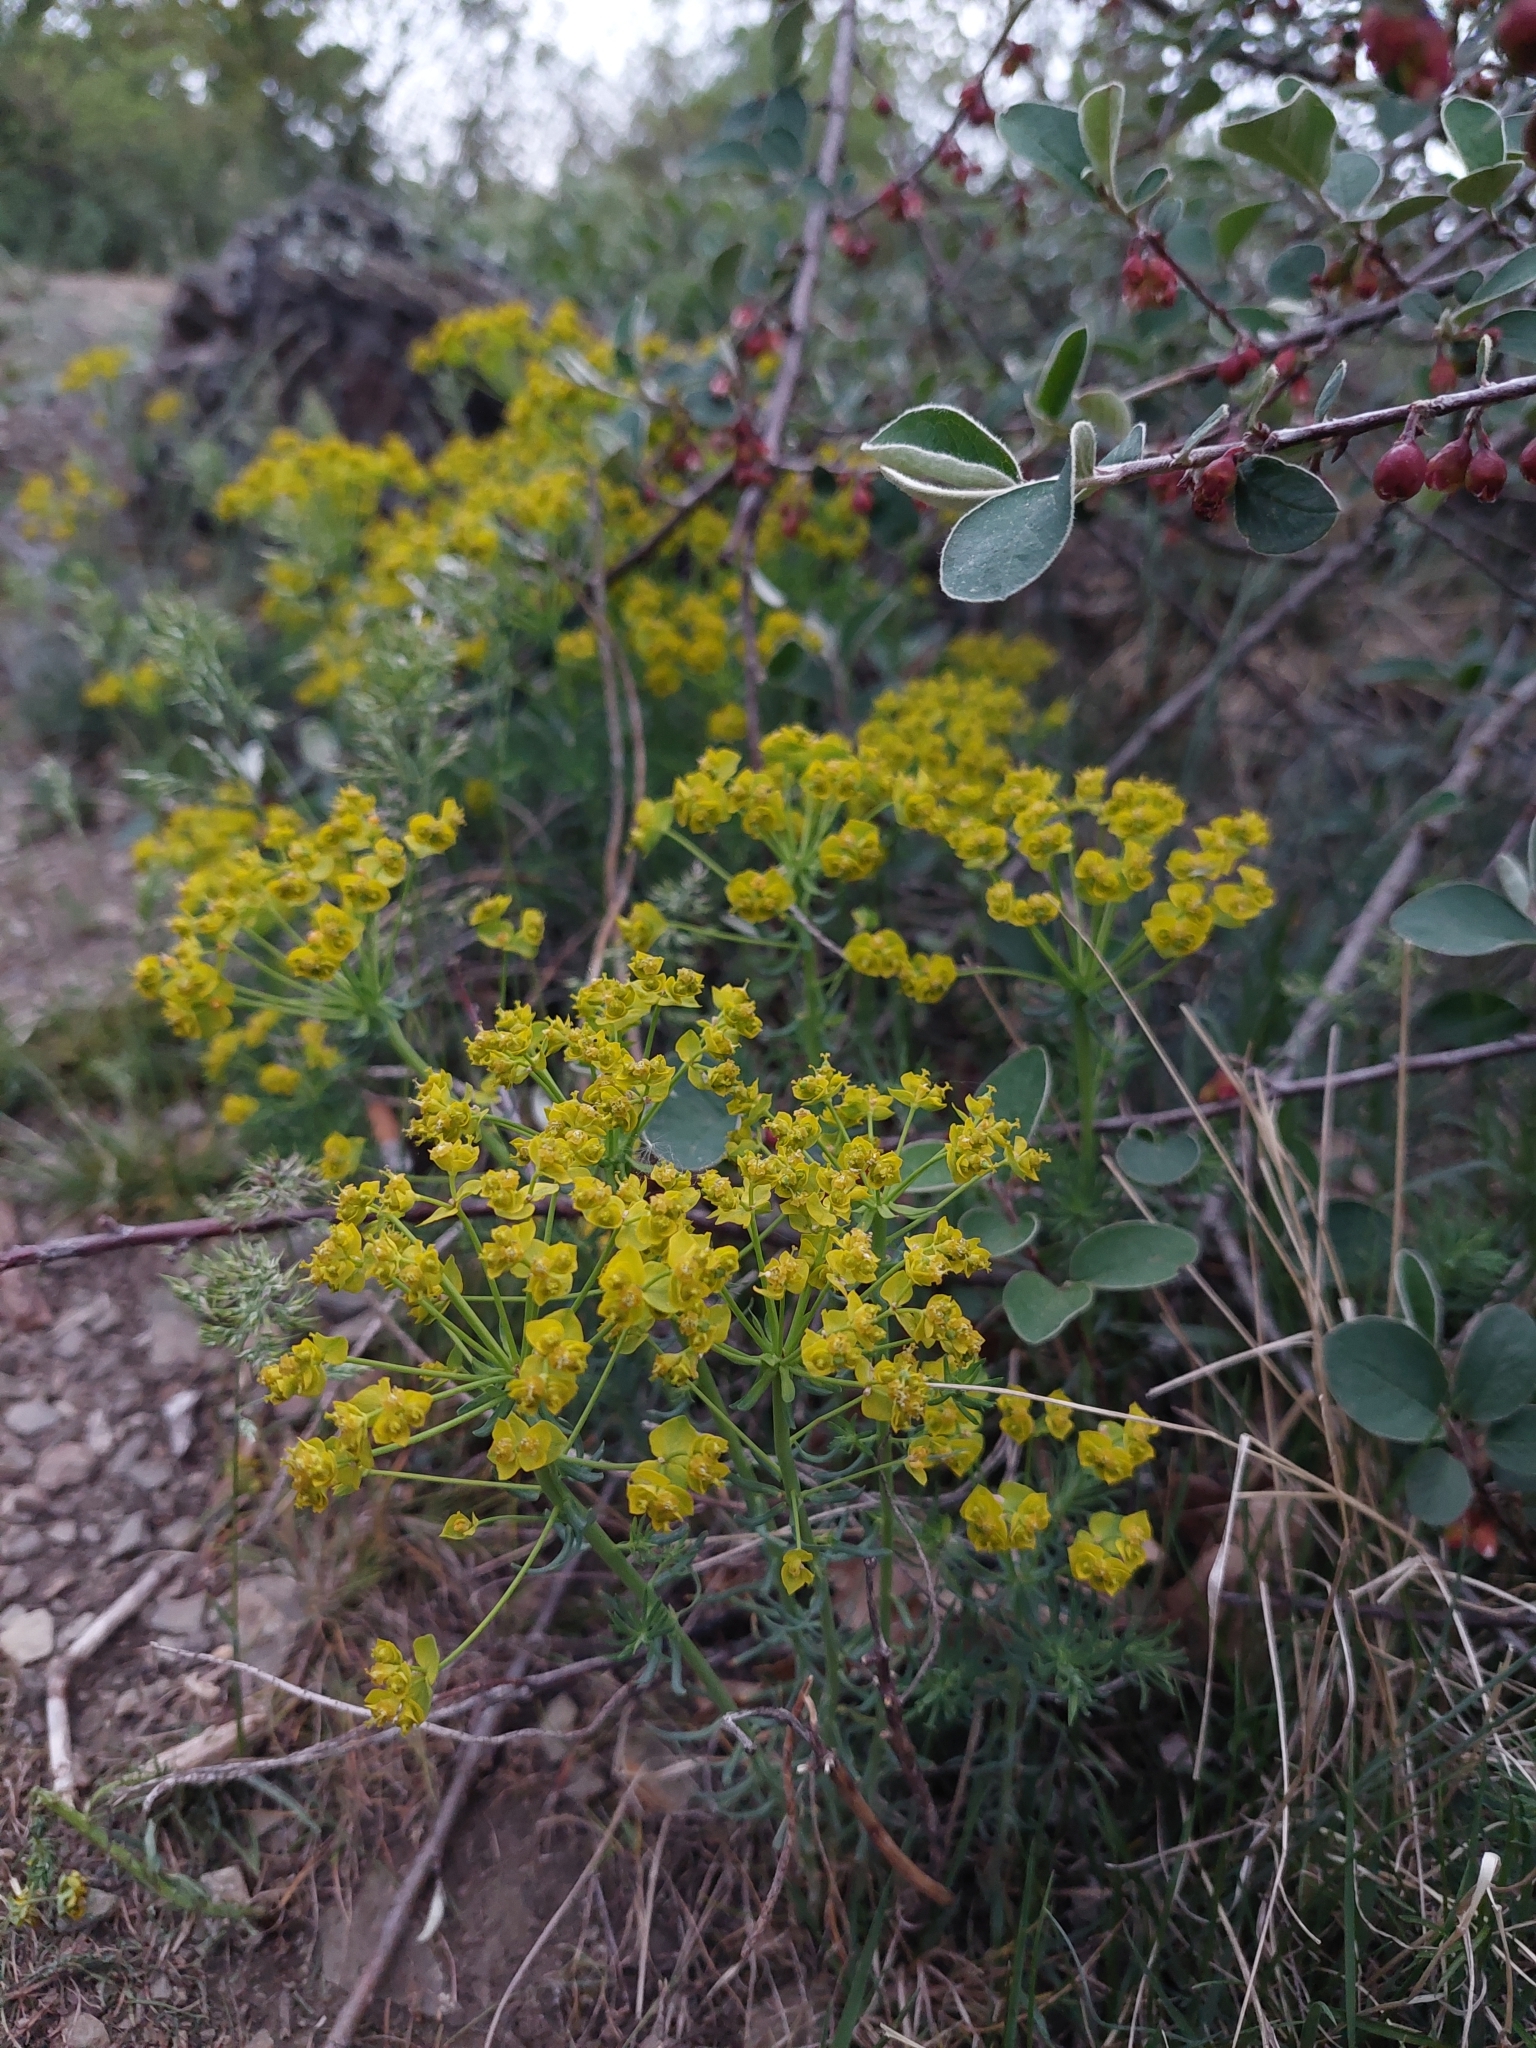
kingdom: Plantae
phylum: Tracheophyta
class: Magnoliopsida
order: Malpighiales
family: Euphorbiaceae
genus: Euphorbia
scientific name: Euphorbia cyparissias
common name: Cypress spurge
